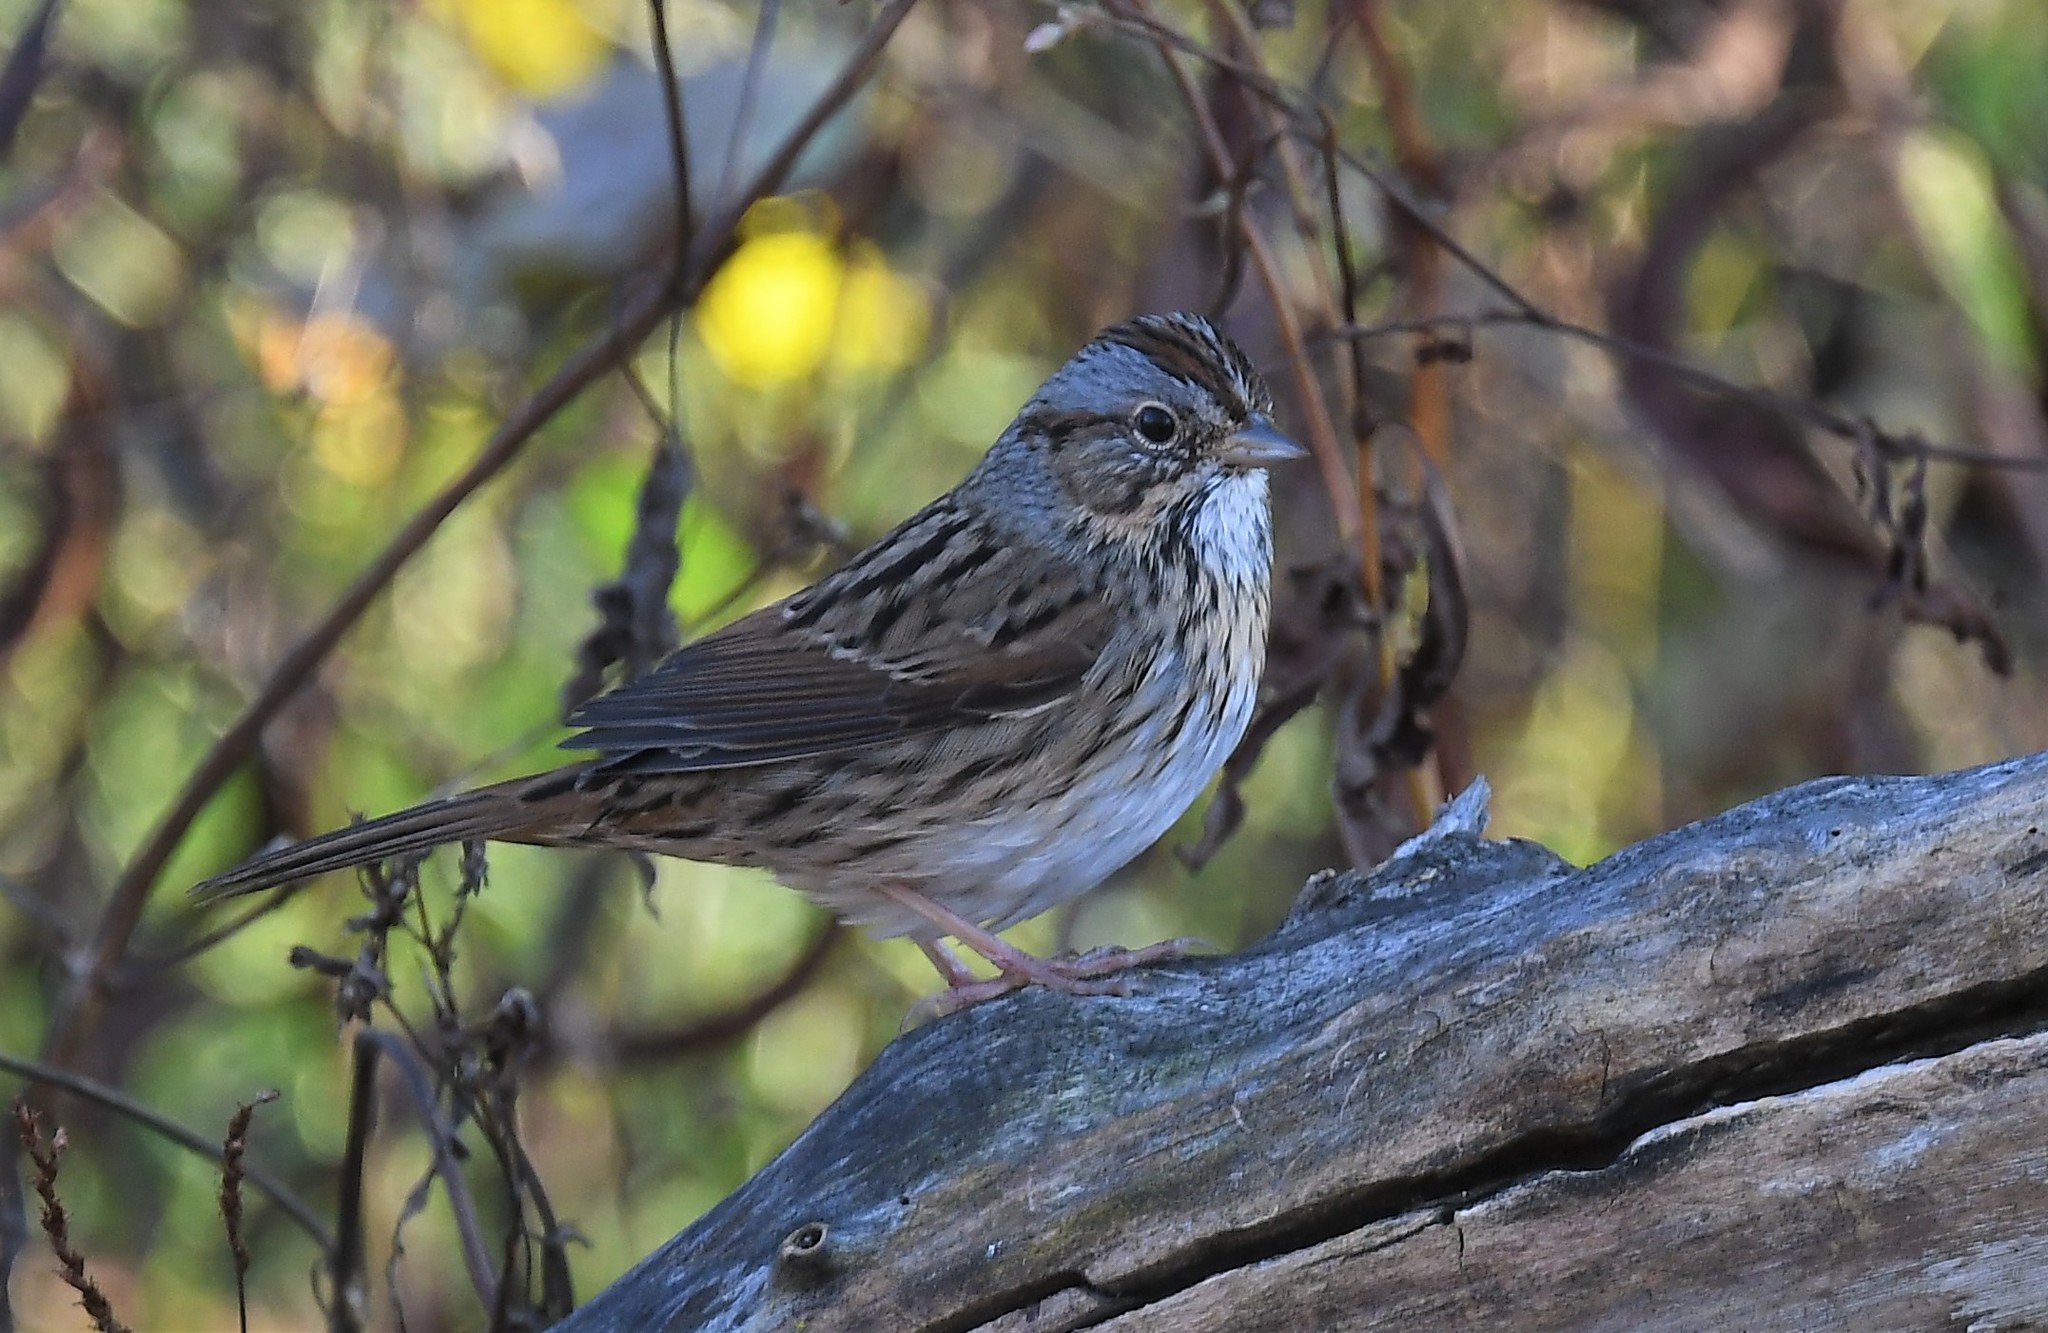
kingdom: Animalia
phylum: Chordata
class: Aves
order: Passeriformes
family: Passerellidae
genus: Melospiza
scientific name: Melospiza lincolnii
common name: Lincoln's sparrow
